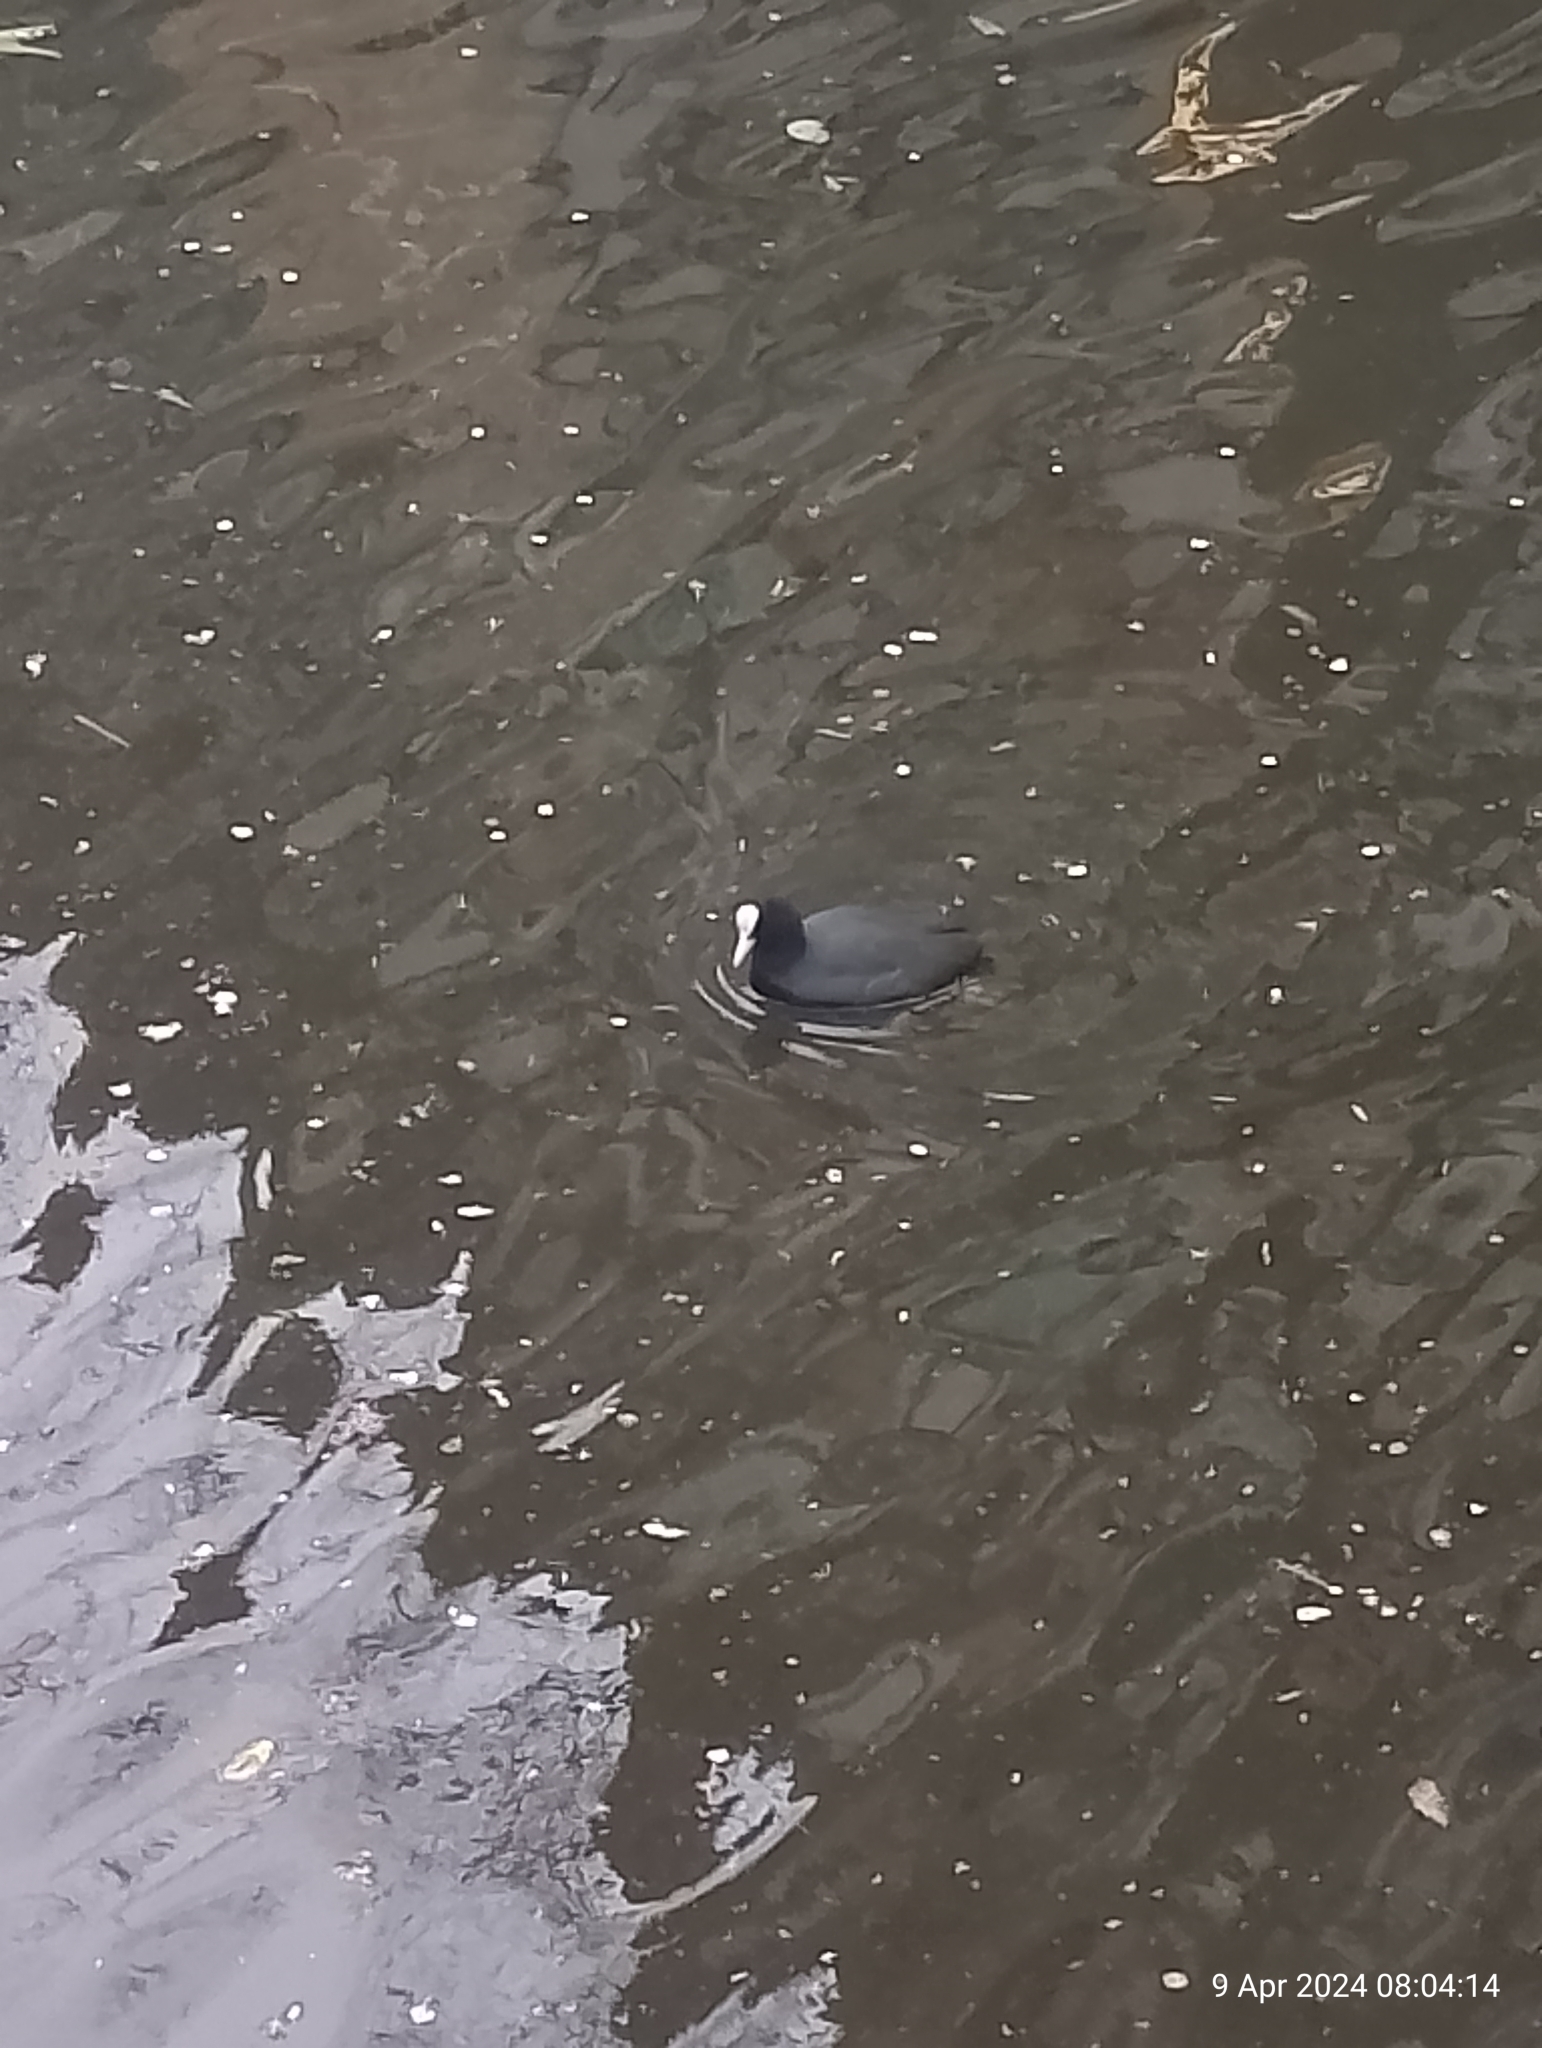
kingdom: Animalia
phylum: Chordata
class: Aves
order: Gruiformes
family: Rallidae
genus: Fulica
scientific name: Fulica atra
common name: Eurasian coot
